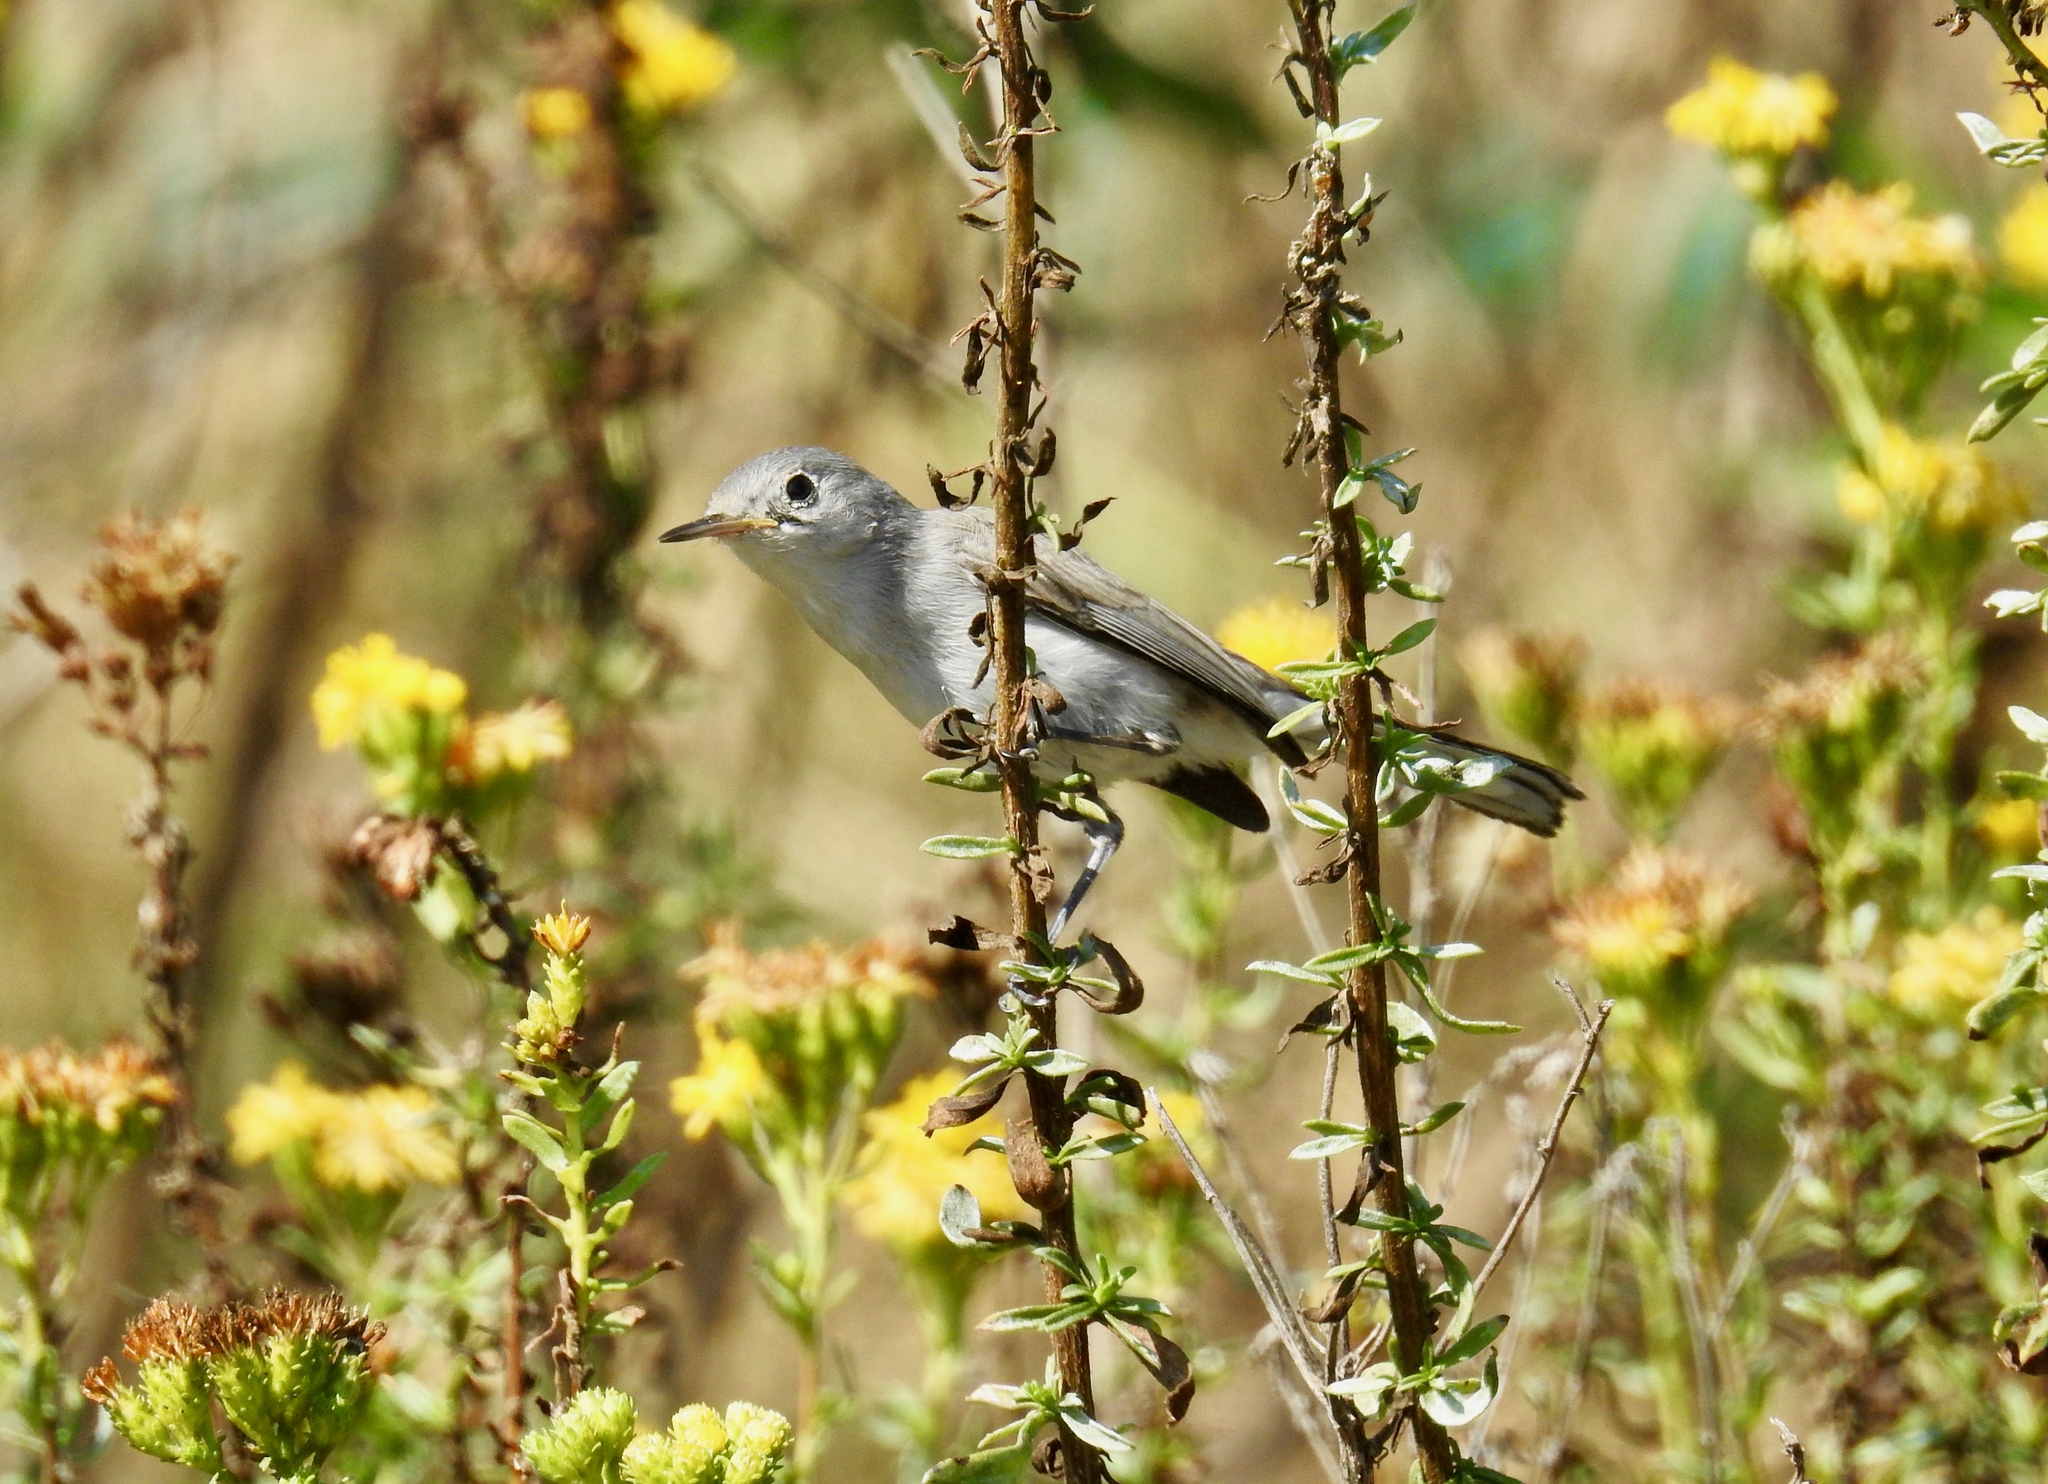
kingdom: Animalia
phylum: Chordata
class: Aves
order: Passeriformes
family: Polioptilidae
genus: Polioptila
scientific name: Polioptila caerulea
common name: Blue-gray gnatcatcher
